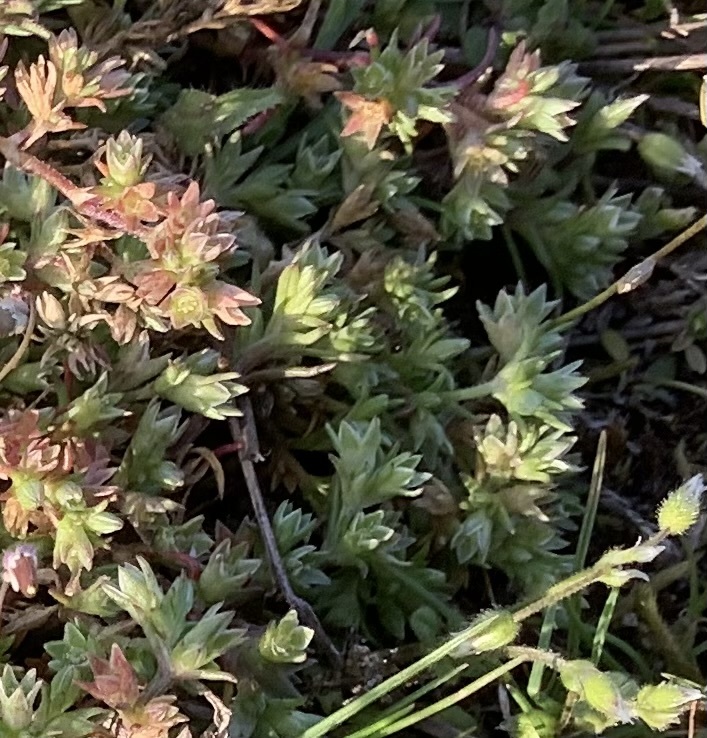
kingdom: Plantae
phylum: Tracheophyta
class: Magnoliopsida
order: Caryophyllales
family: Caryophyllaceae
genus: Scleranthus
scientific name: Scleranthus annuus
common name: Annual knawel
